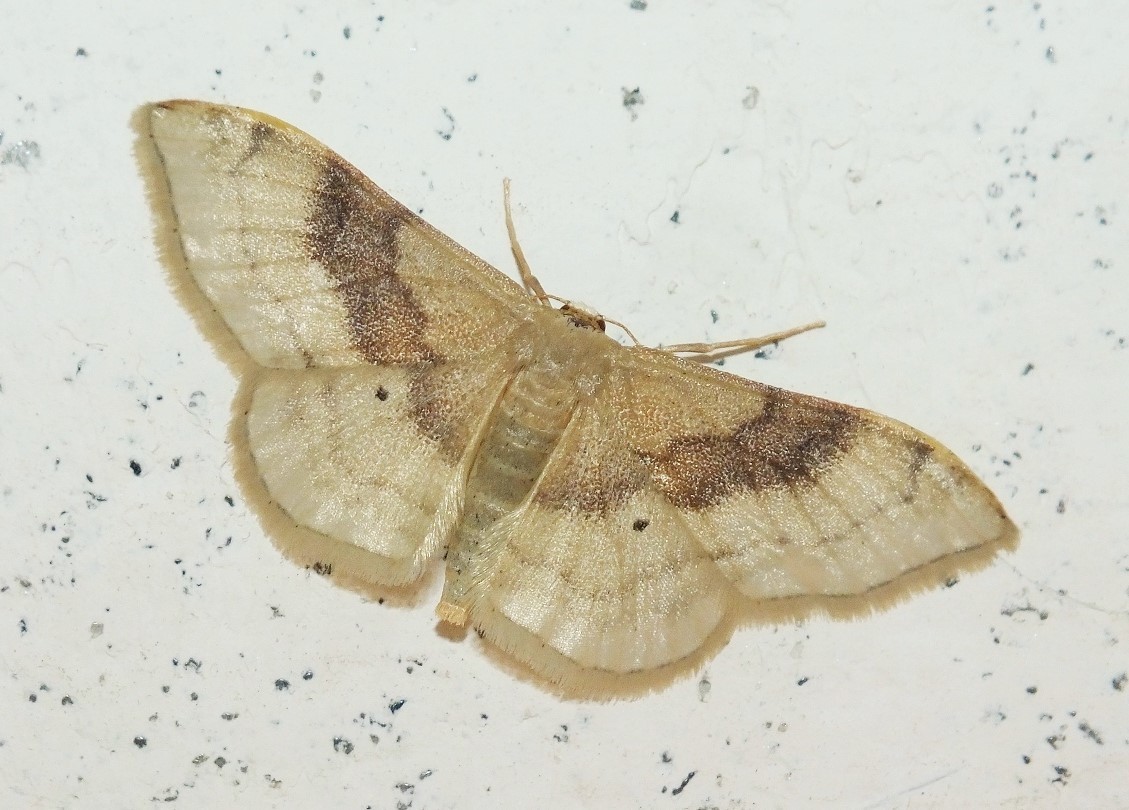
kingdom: Animalia
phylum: Arthropoda
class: Insecta
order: Lepidoptera
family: Geometridae
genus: Idaea
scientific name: Idaea degeneraria
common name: Portland ribbon wave
